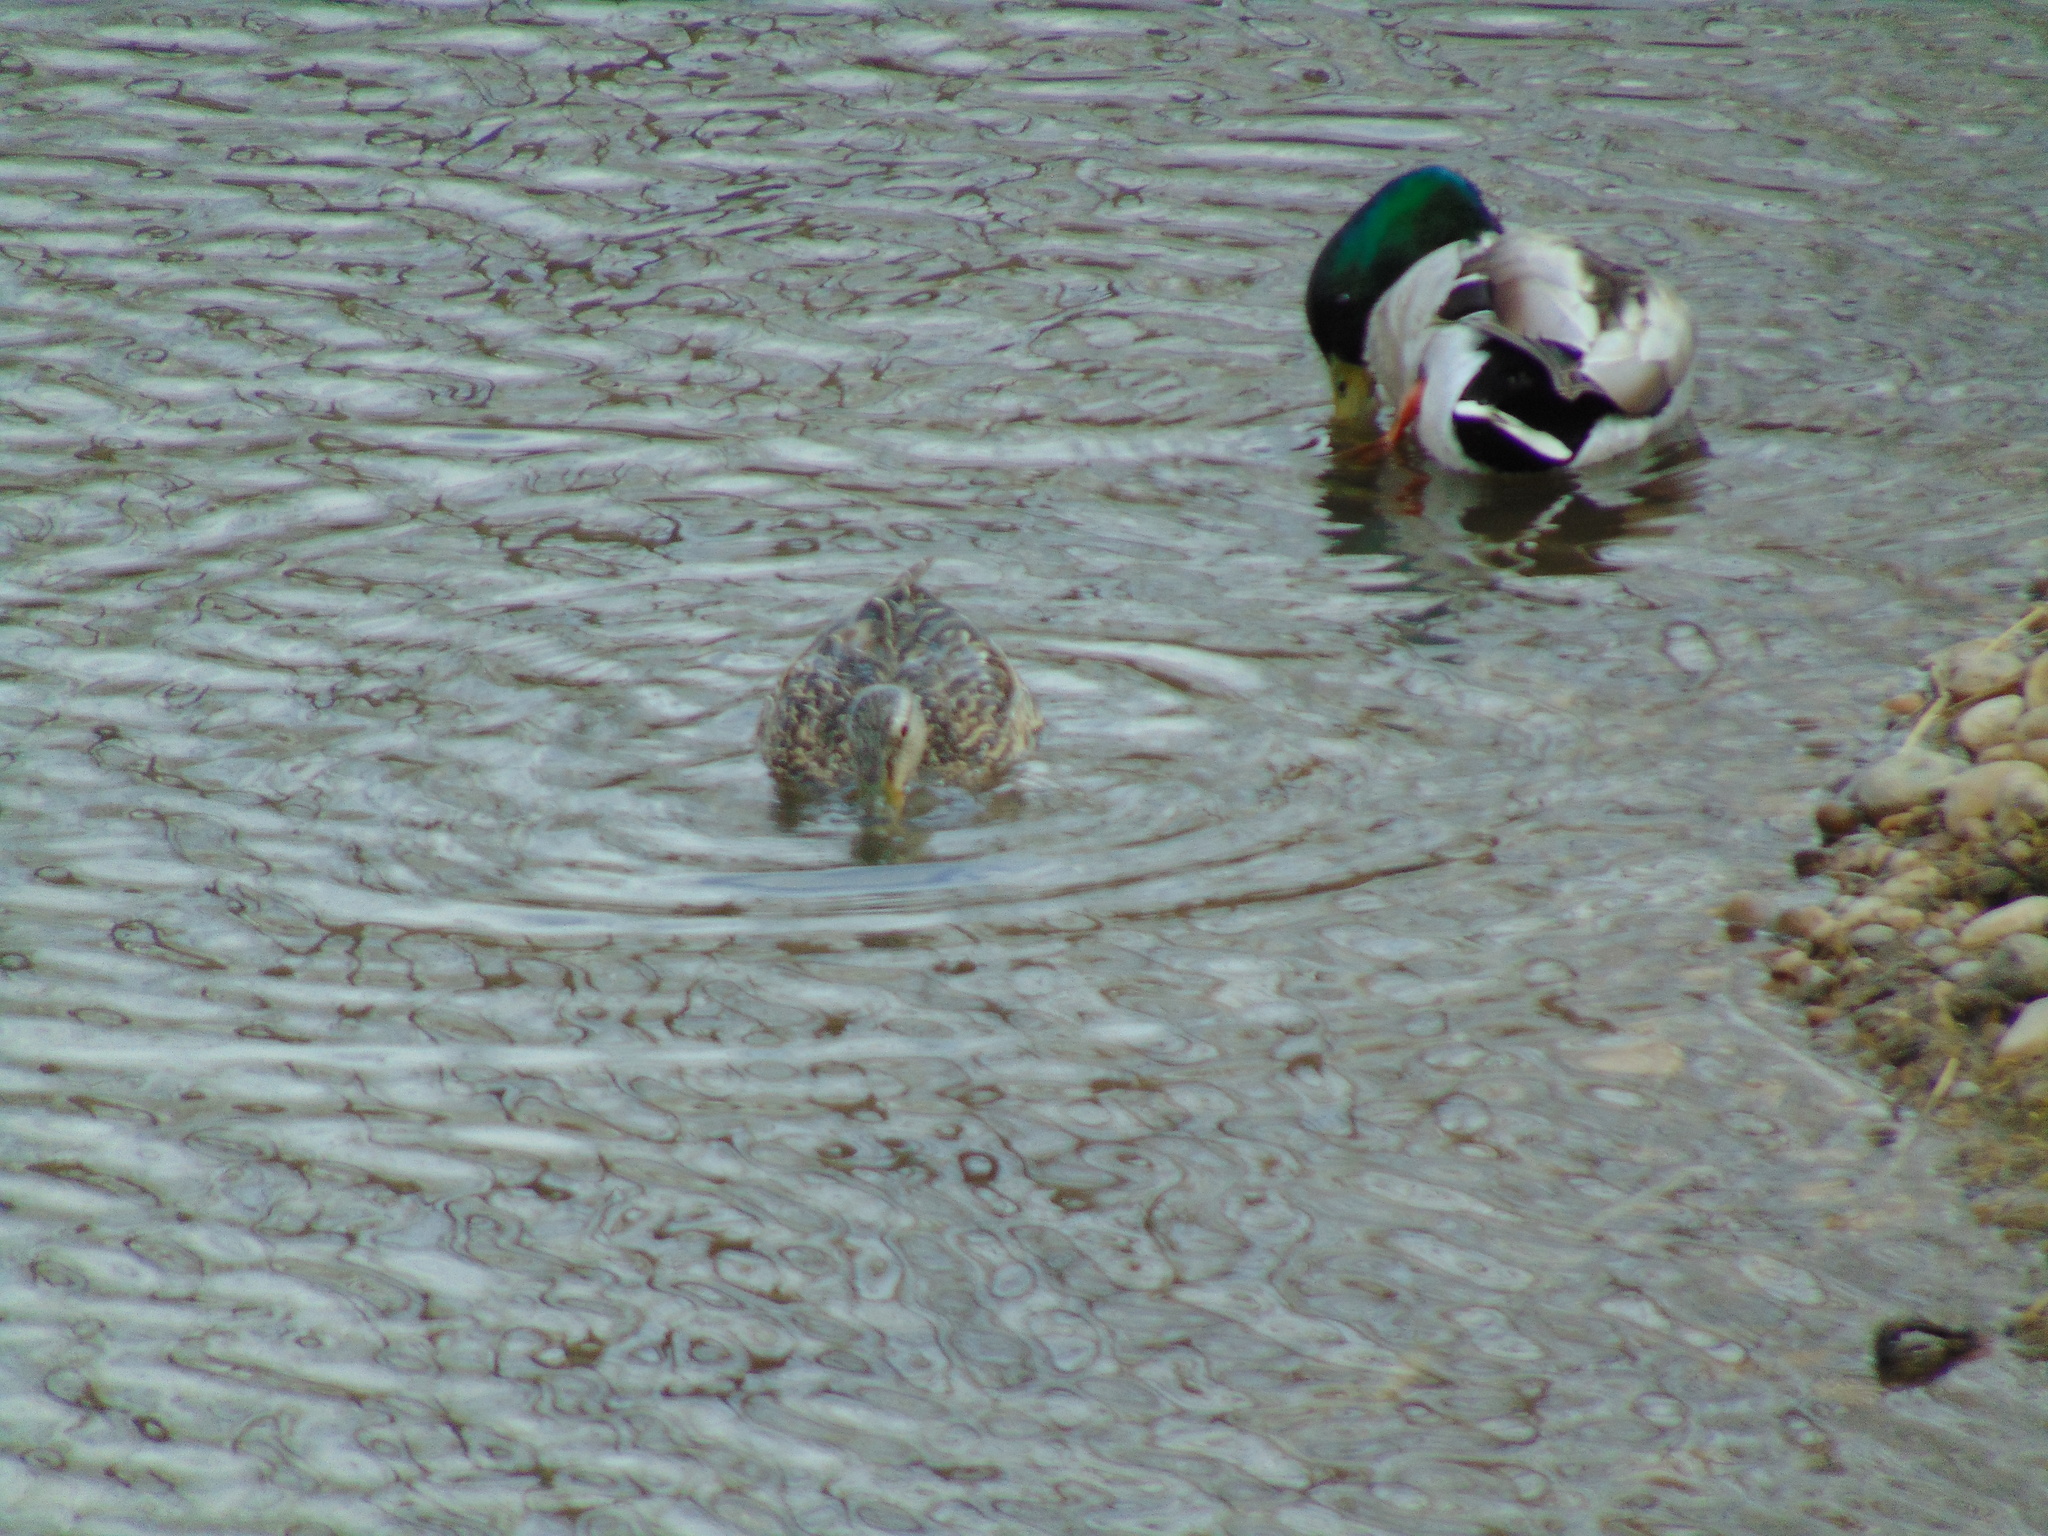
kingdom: Animalia
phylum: Chordata
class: Aves
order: Anseriformes
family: Anatidae
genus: Anas
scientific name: Anas platyrhynchos
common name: Mallard
